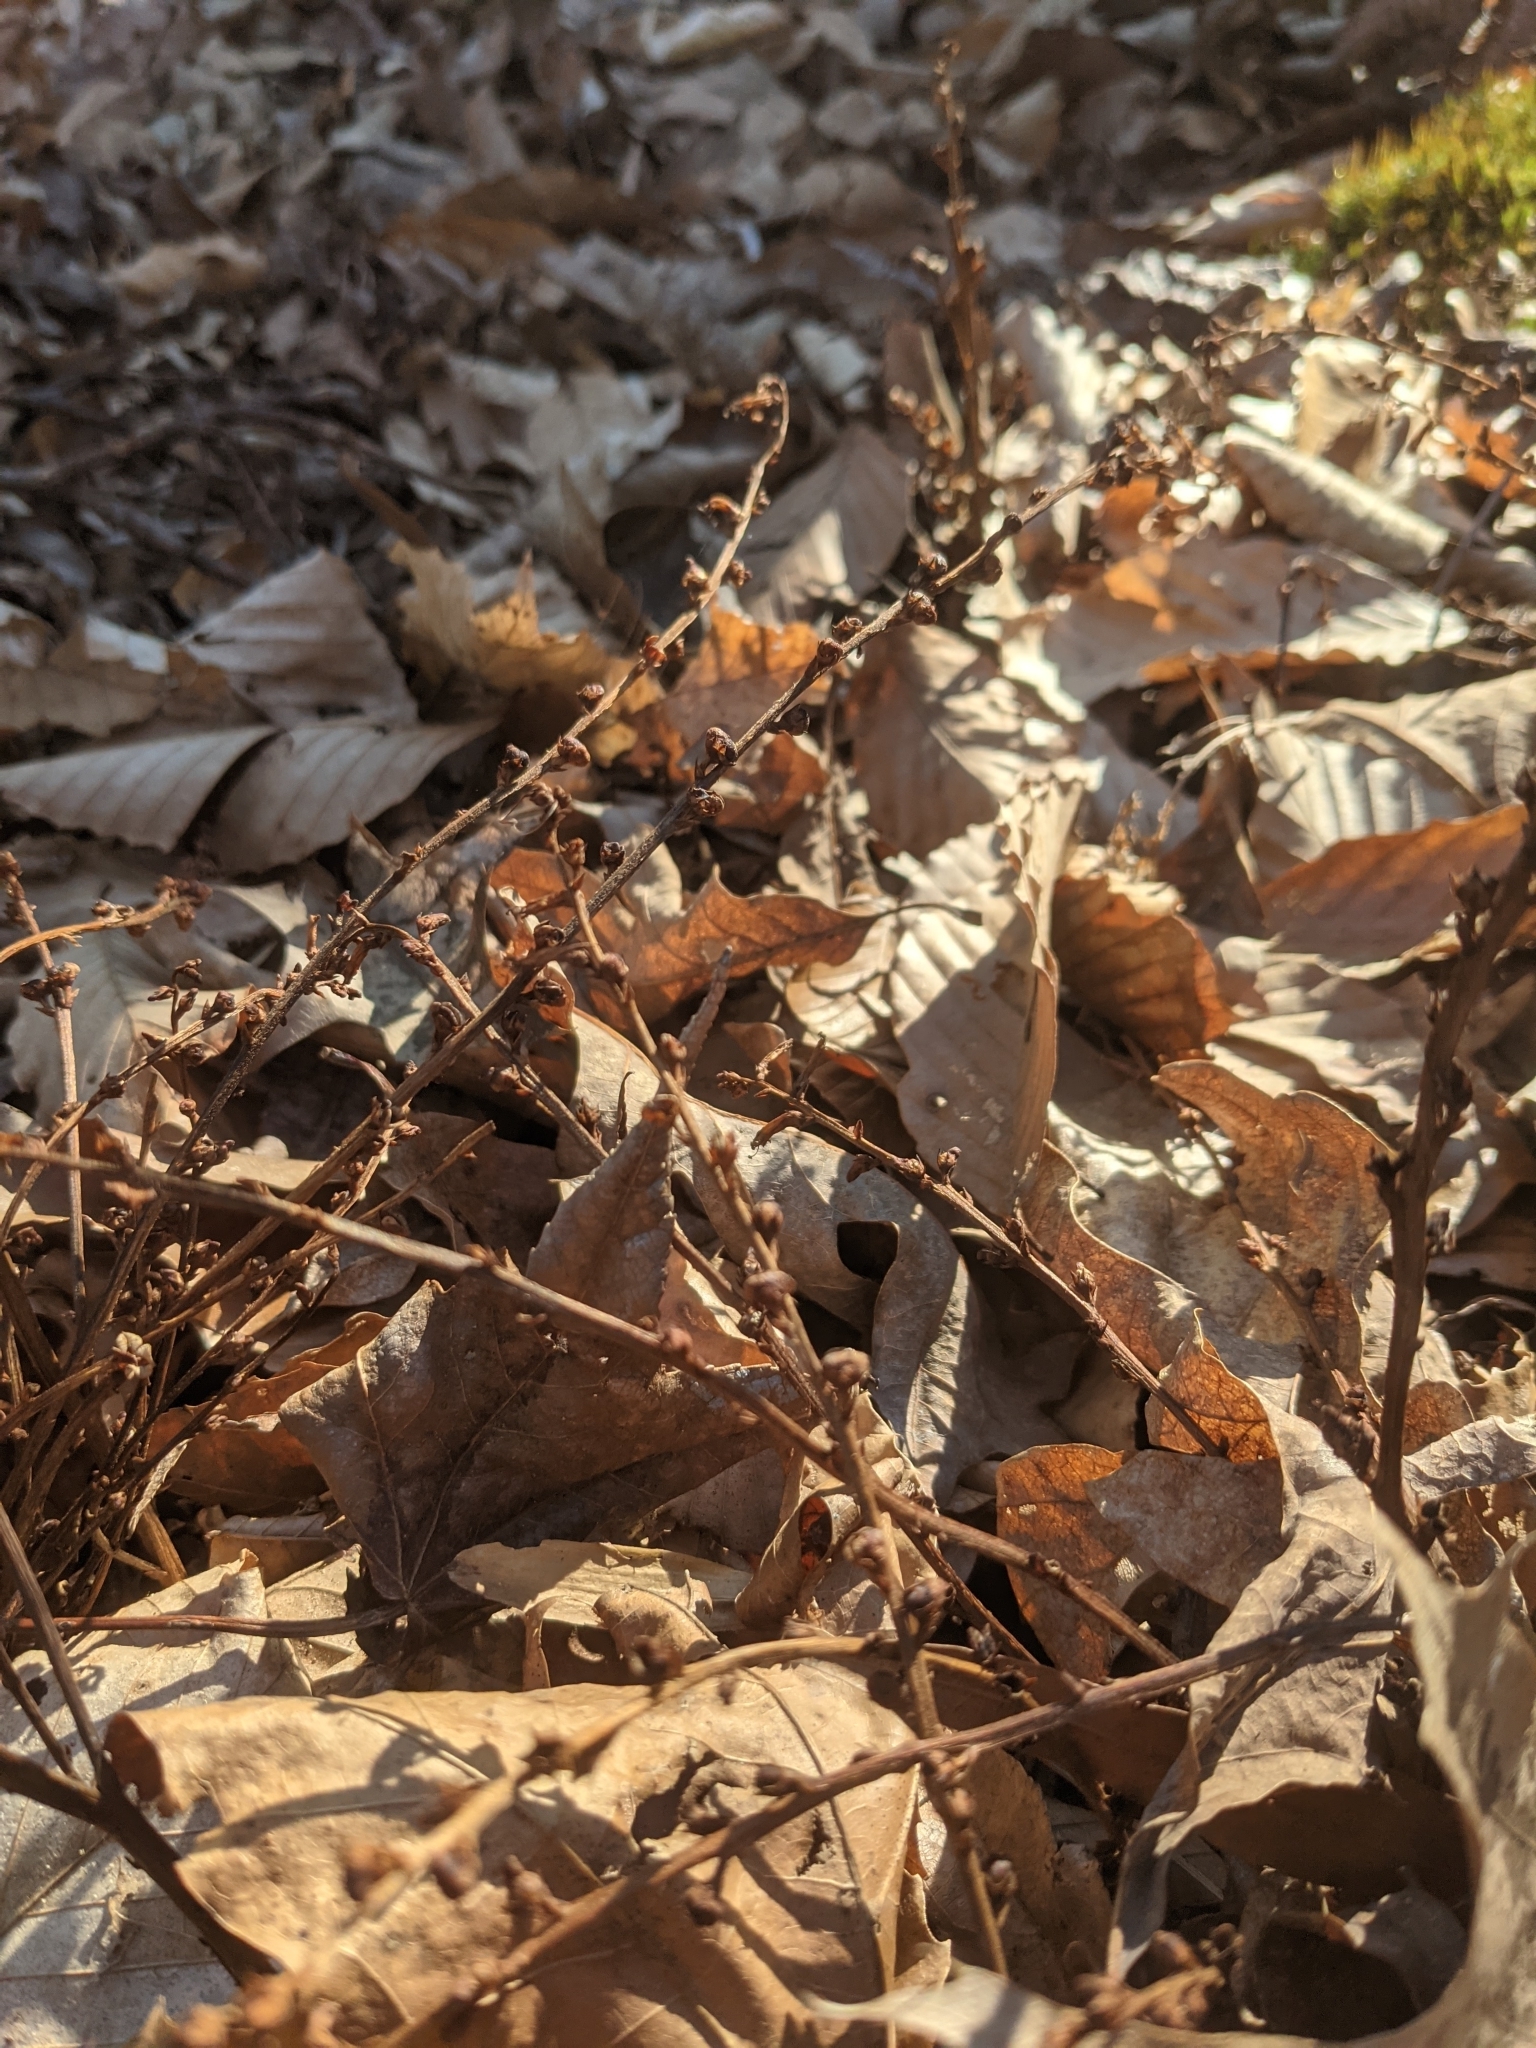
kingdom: Plantae
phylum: Tracheophyta
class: Magnoliopsida
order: Lamiales
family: Orobanchaceae
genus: Epifagus
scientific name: Epifagus virginiana
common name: Beechdrops
